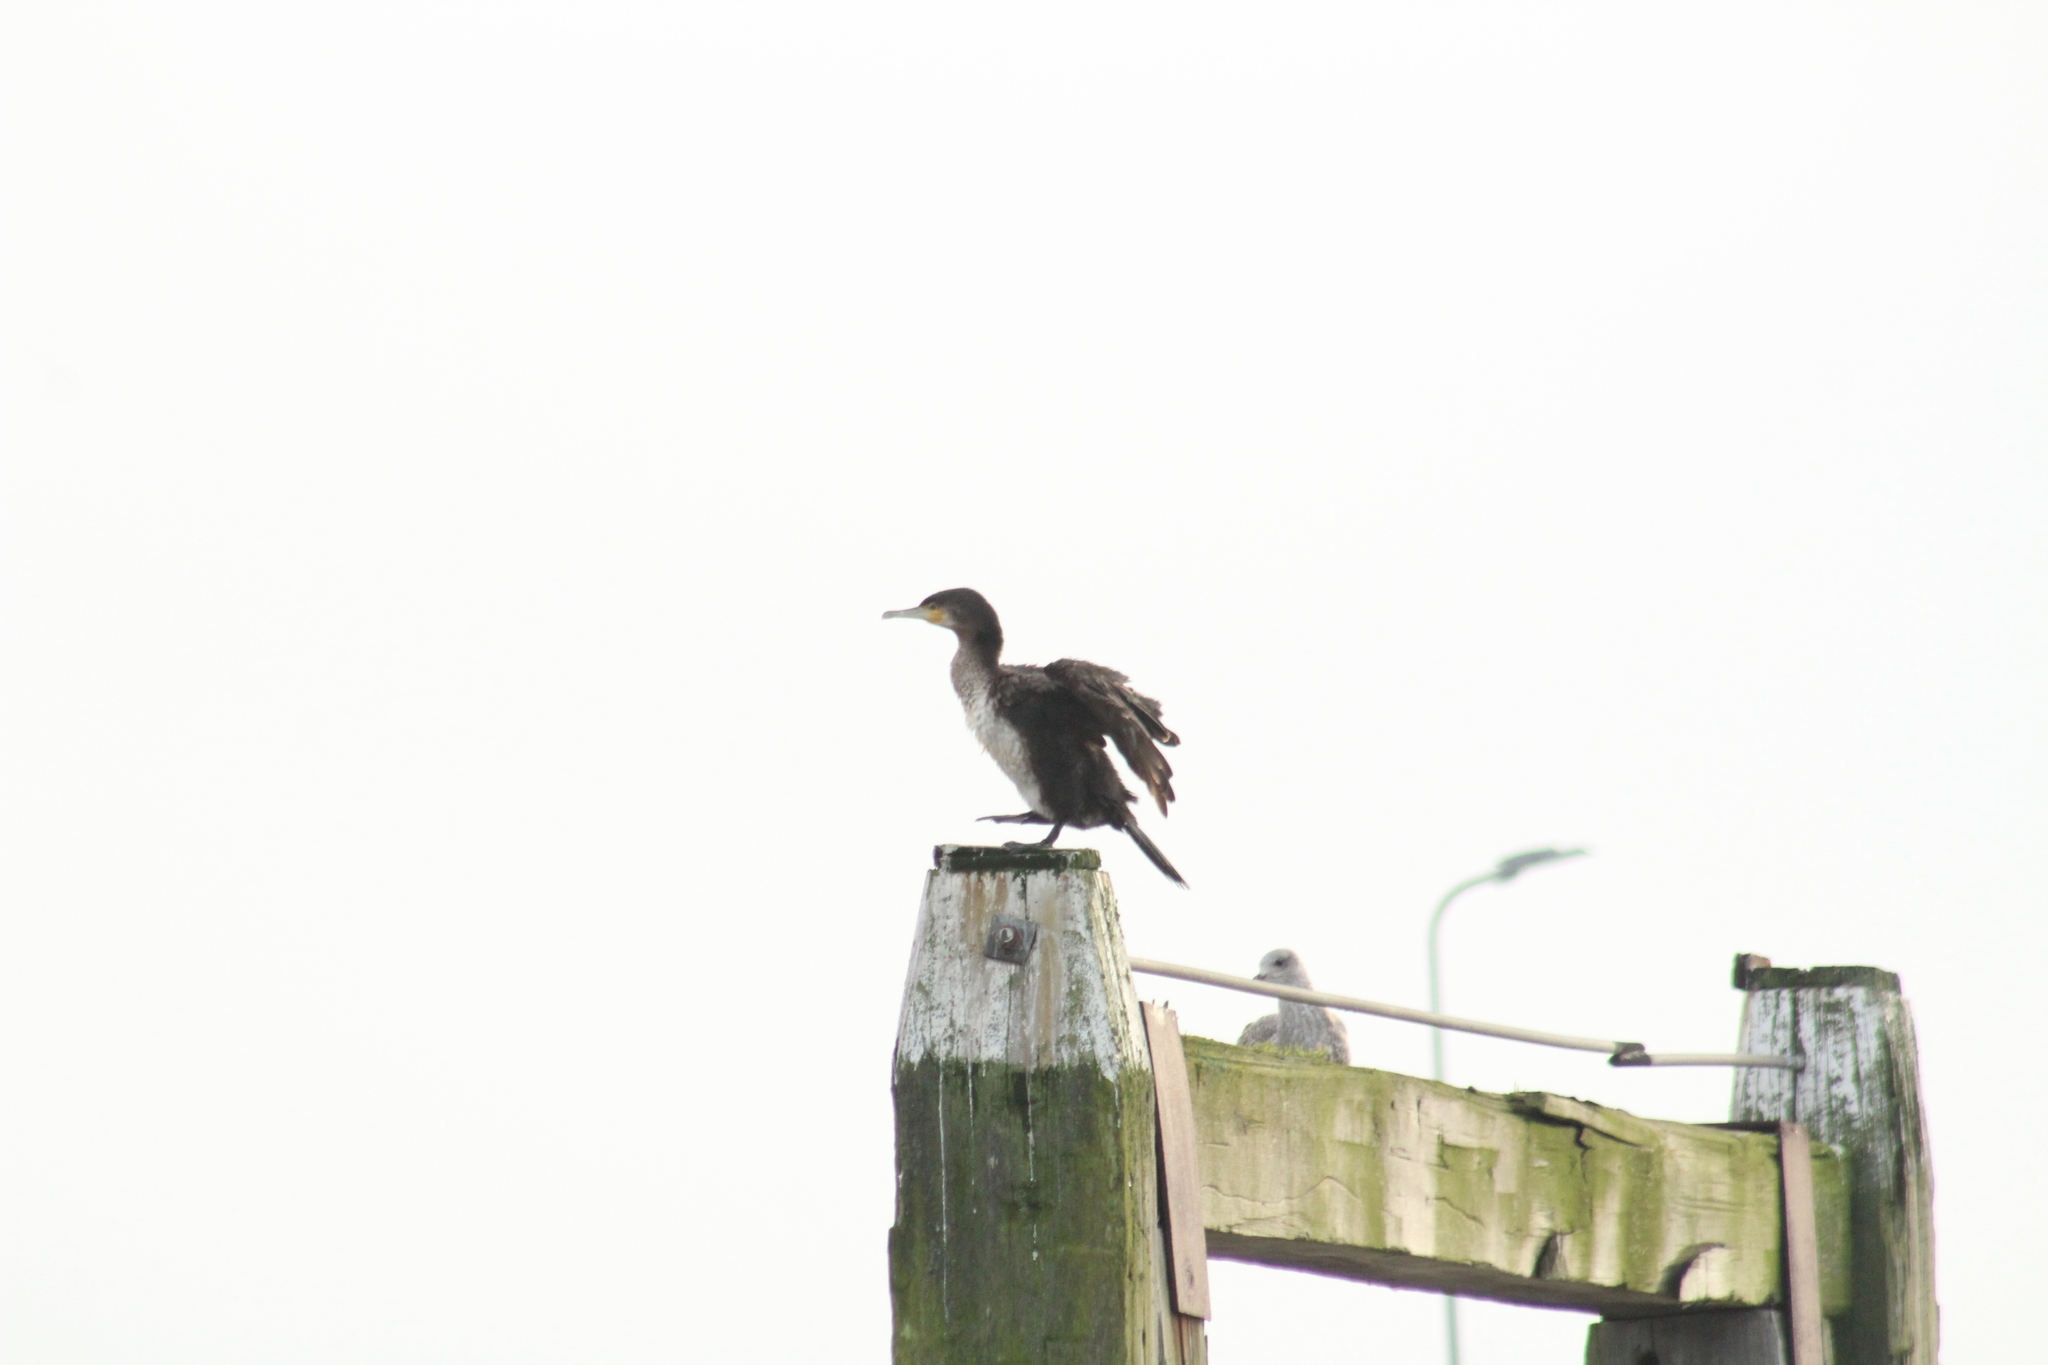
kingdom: Animalia
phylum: Chordata
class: Aves
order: Suliformes
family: Phalacrocoracidae
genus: Phalacrocorax
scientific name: Phalacrocorax carbo
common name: Great cormorant
